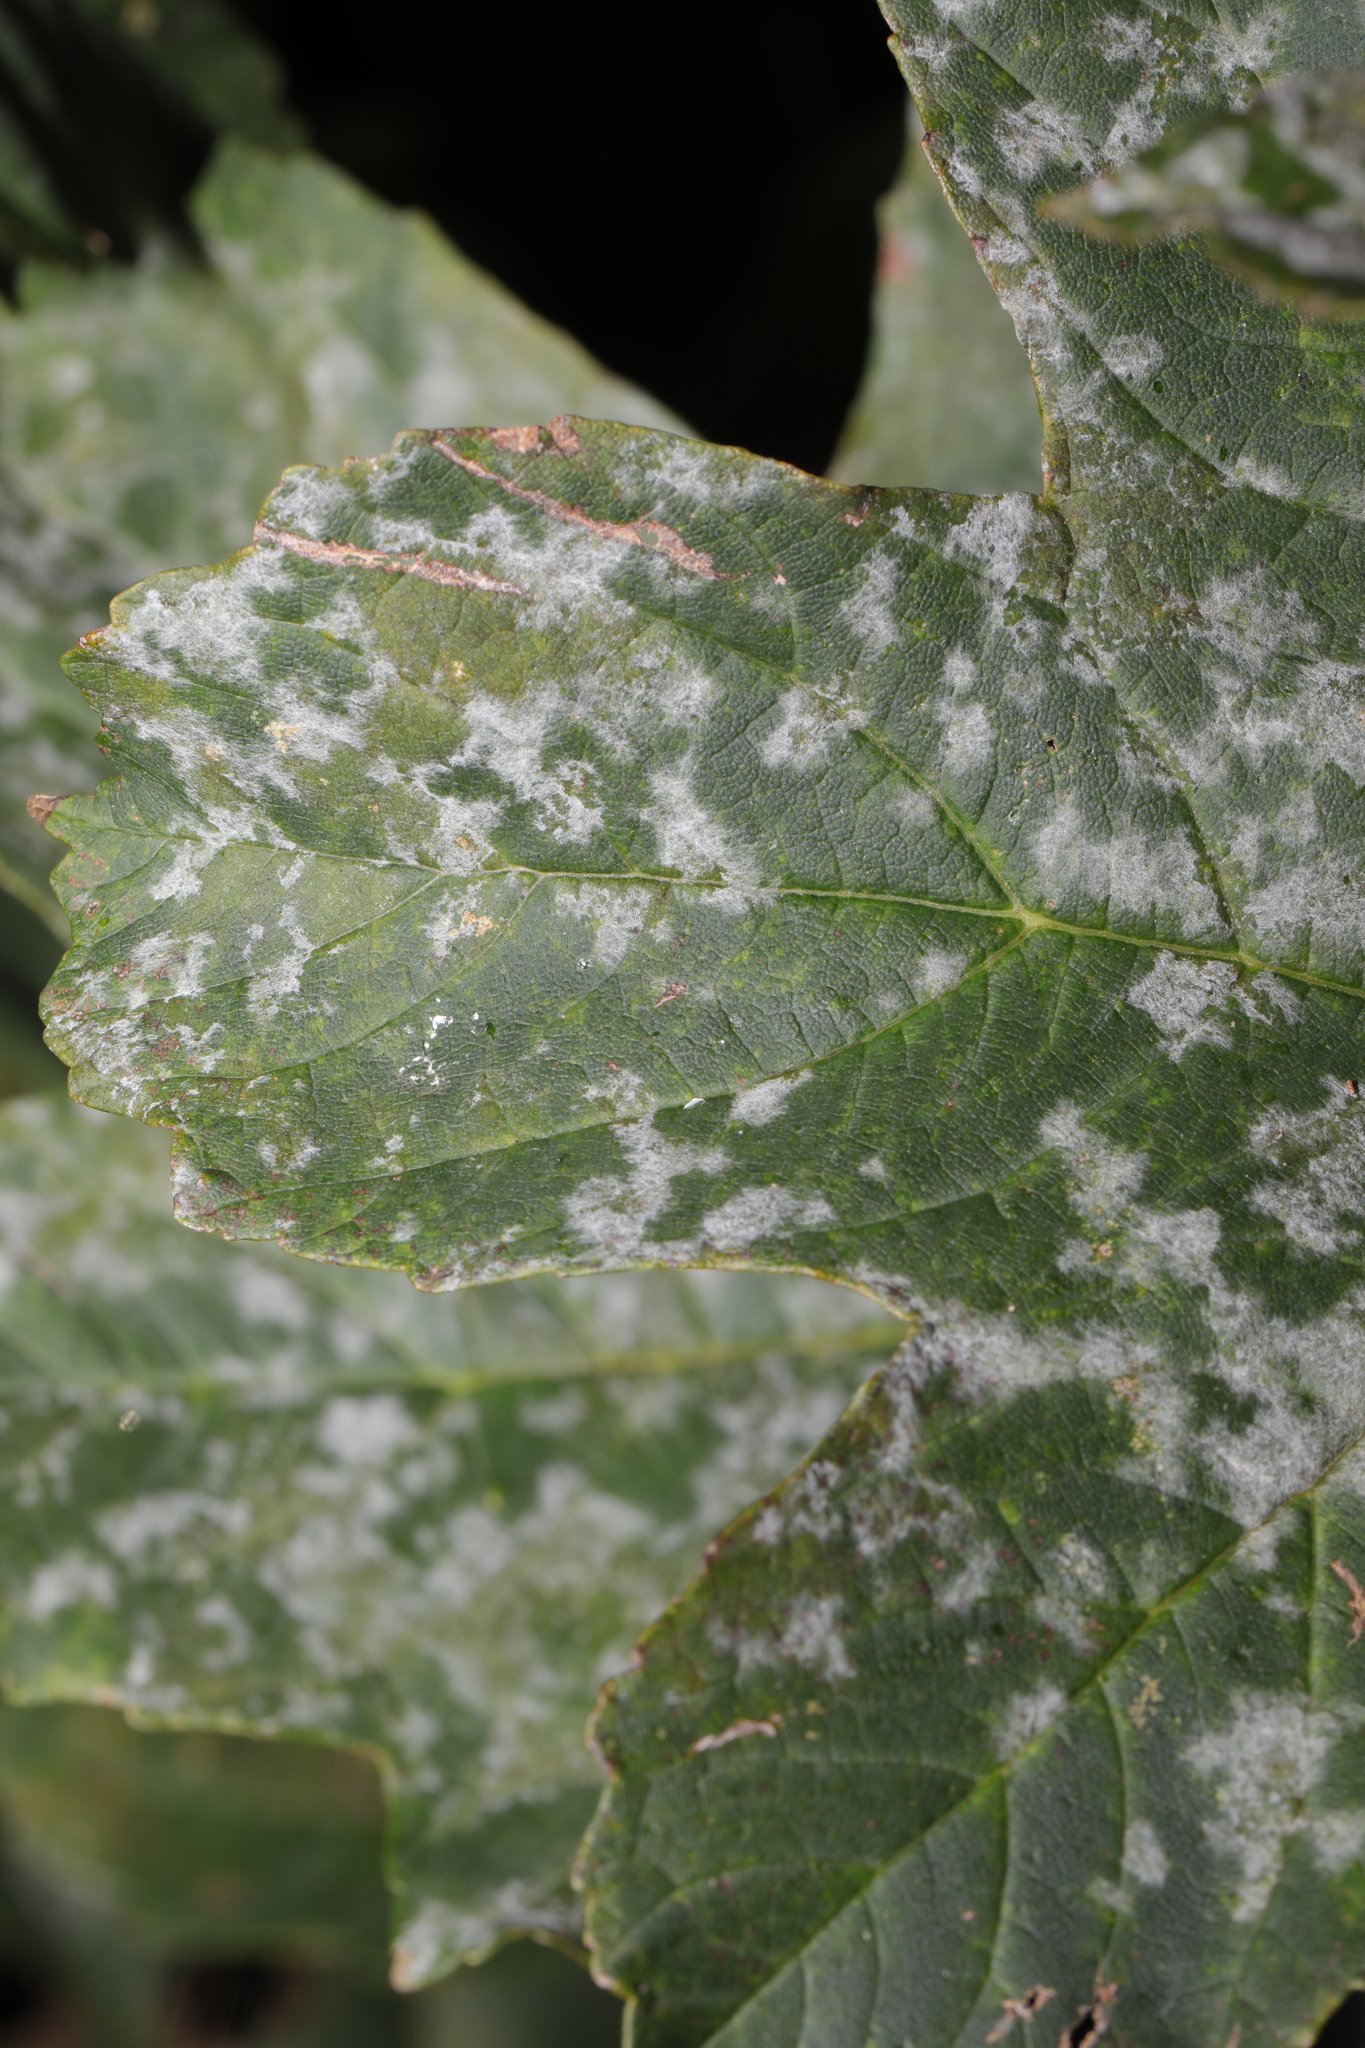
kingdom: Fungi
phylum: Ascomycota
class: Leotiomycetes
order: Helotiales
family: Erysiphaceae
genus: Sawadaea
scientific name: Sawadaea bicornis
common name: Maple mildew
